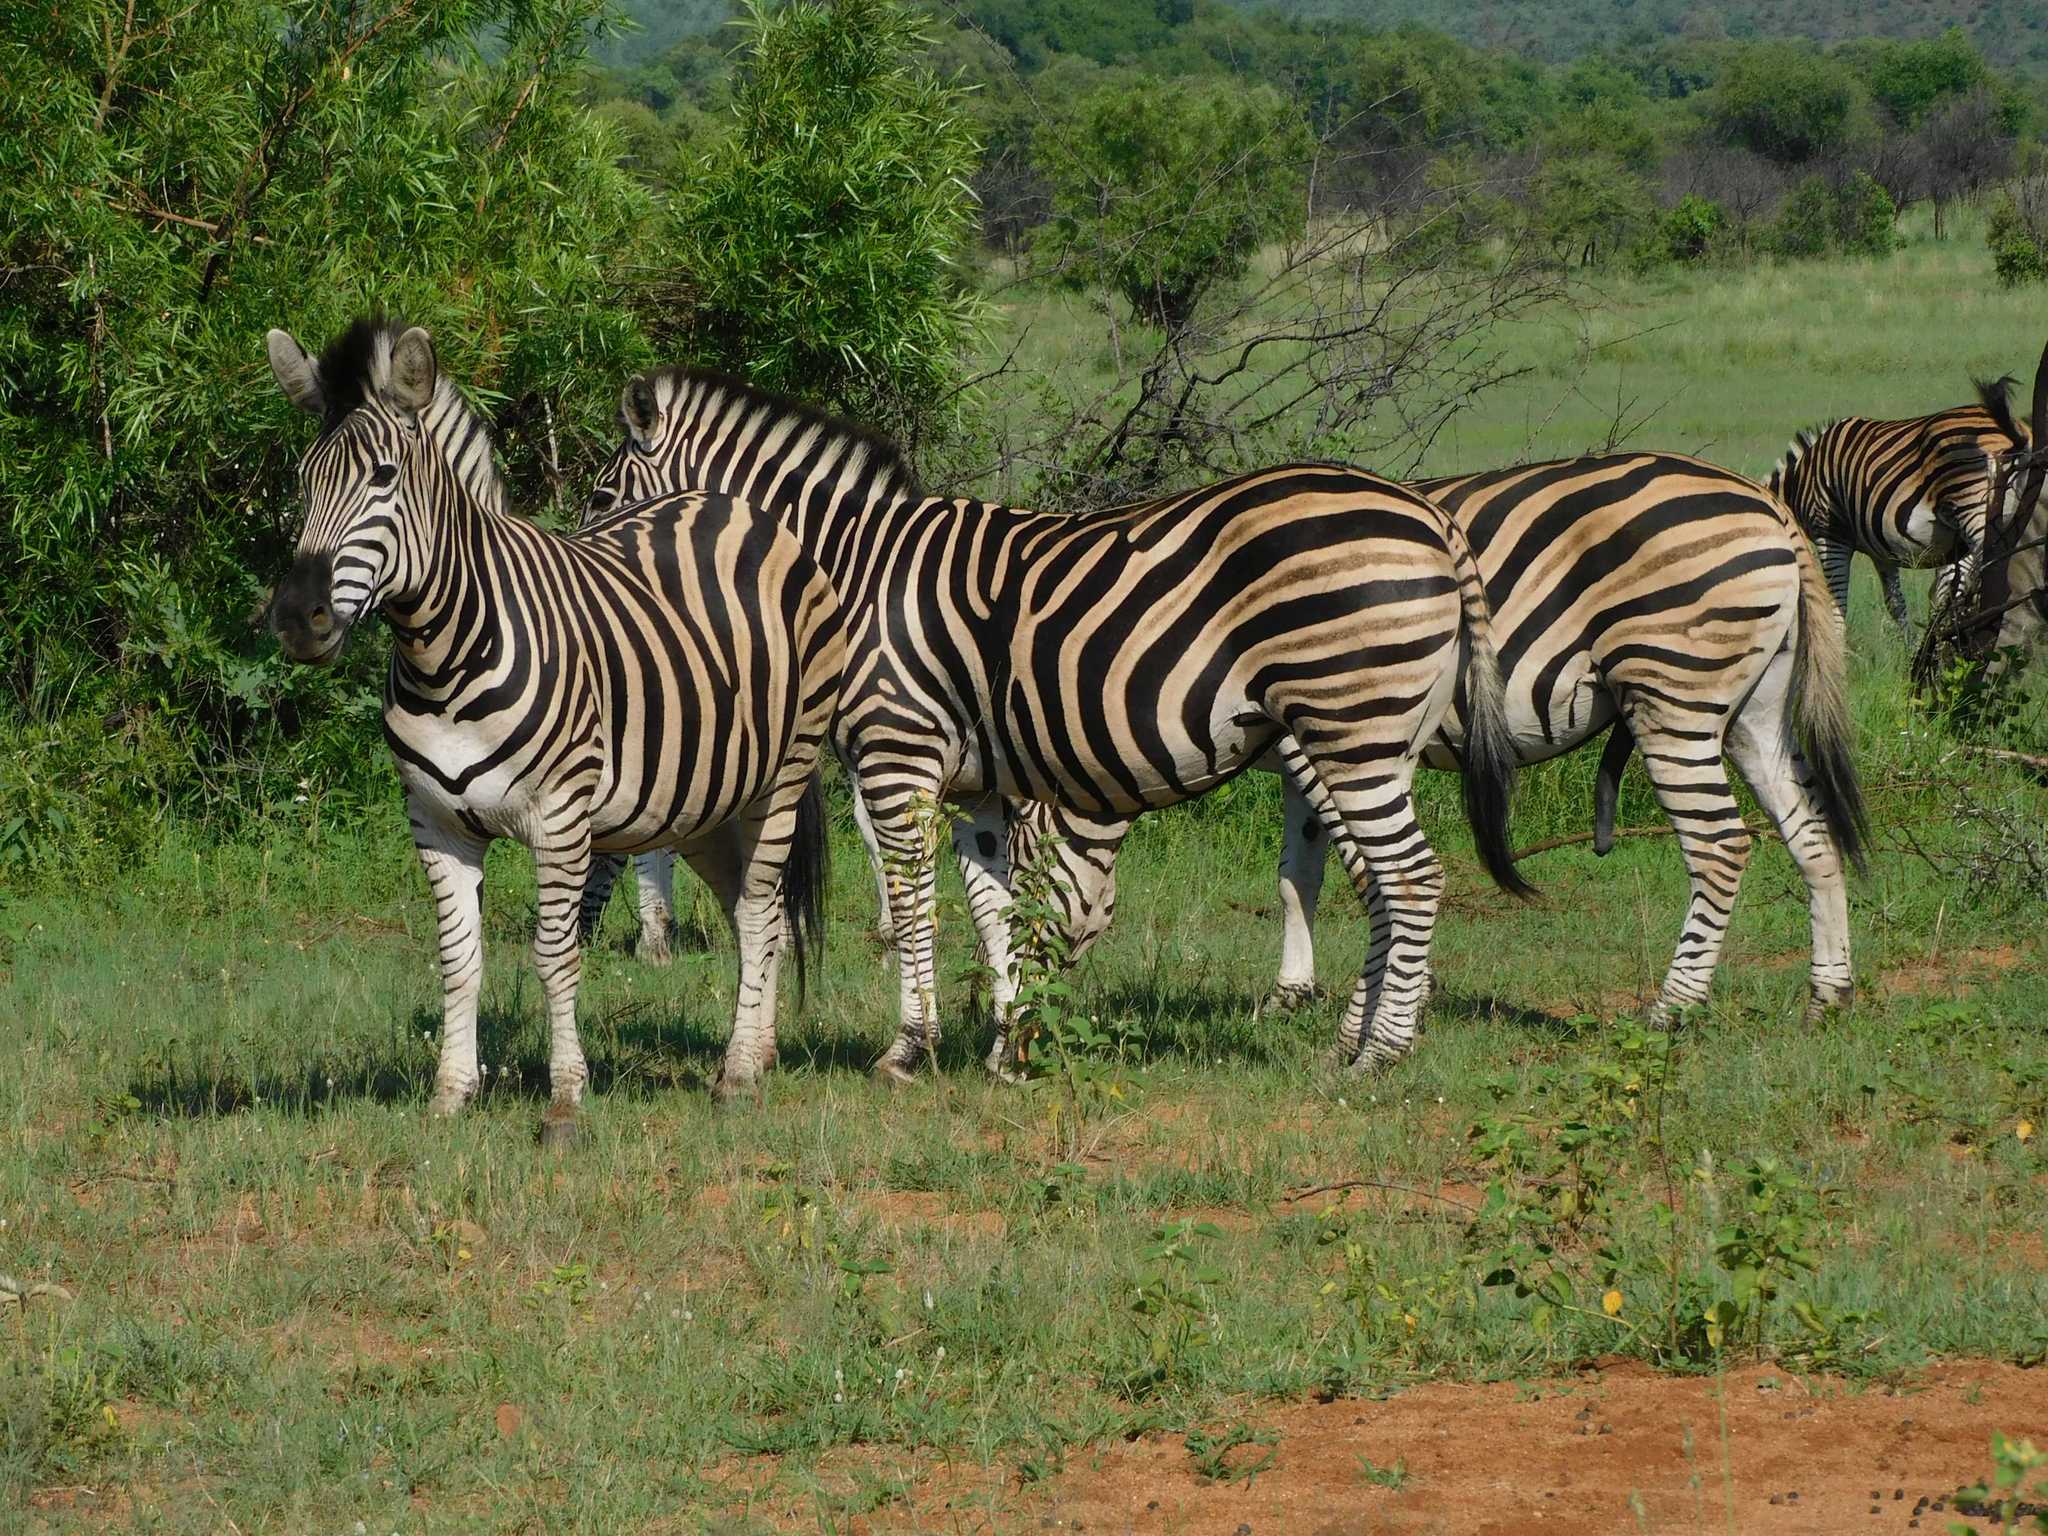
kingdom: Animalia
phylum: Chordata
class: Mammalia
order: Perissodactyla
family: Equidae
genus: Equus
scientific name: Equus quagga
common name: Plains zebra
